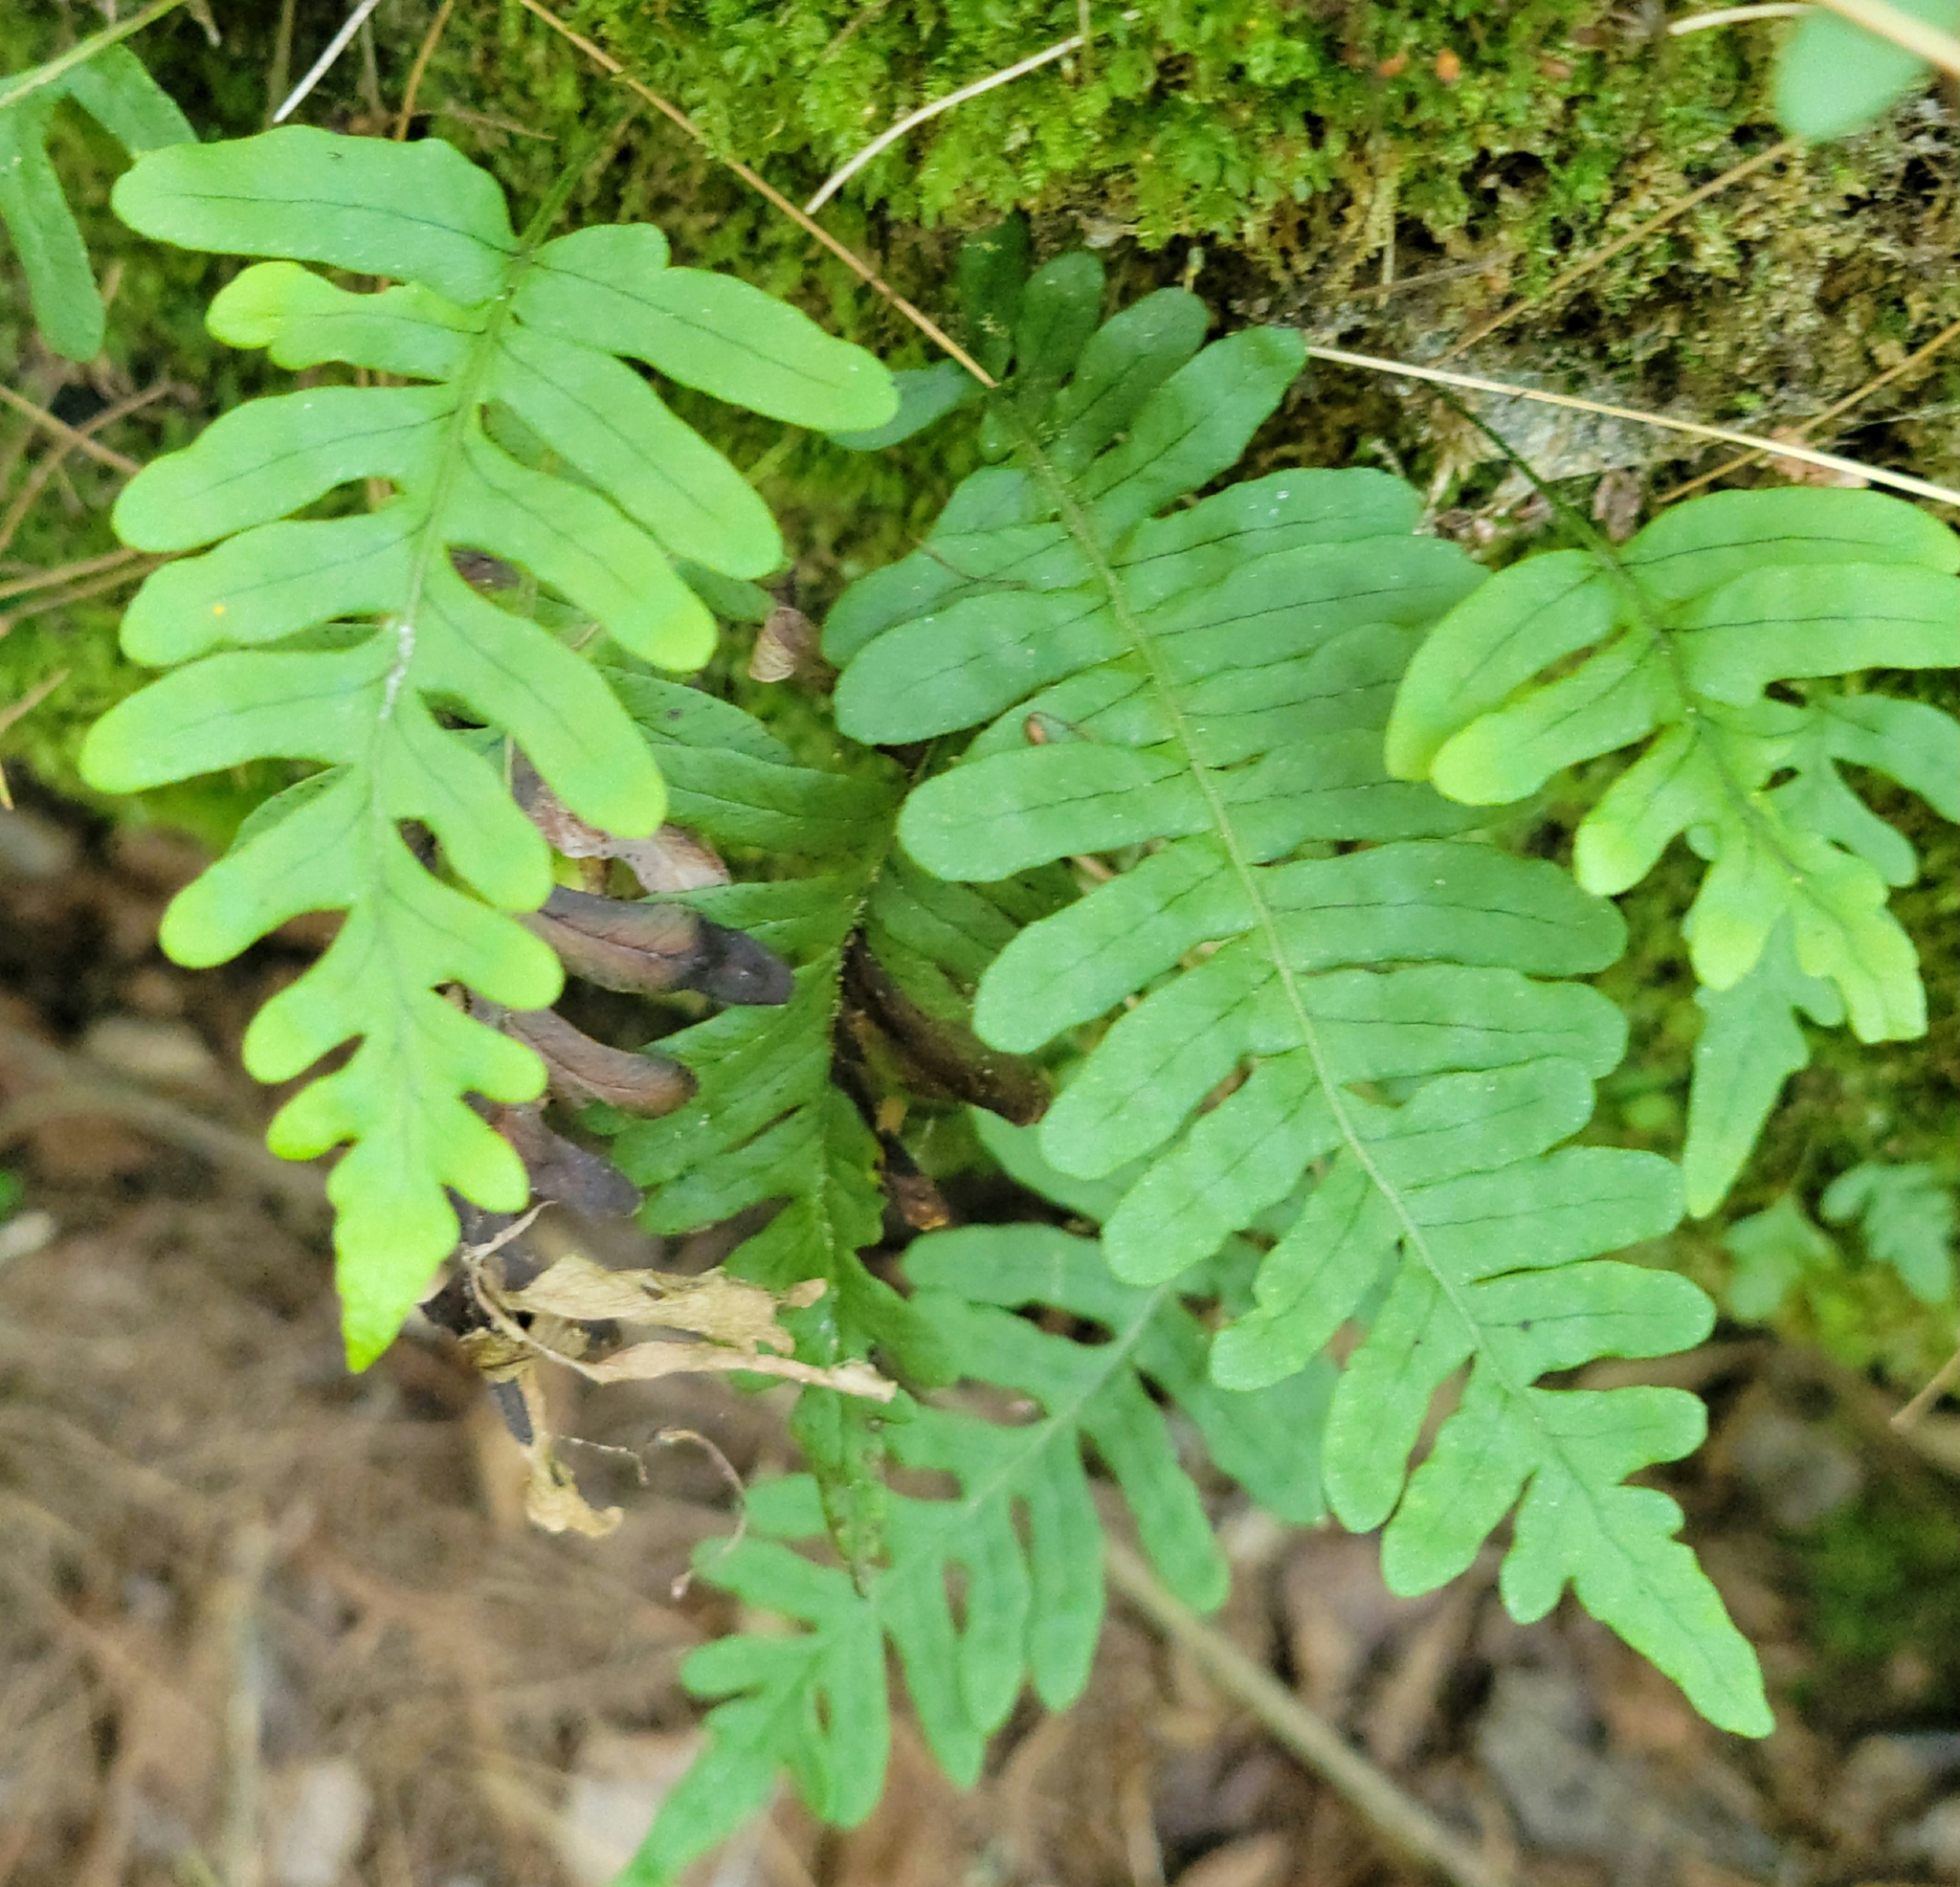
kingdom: Plantae
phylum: Tracheophyta
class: Polypodiopsida
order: Polypodiales
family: Polypodiaceae
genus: Polypodium
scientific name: Polypodium virginianum
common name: American wall fern
